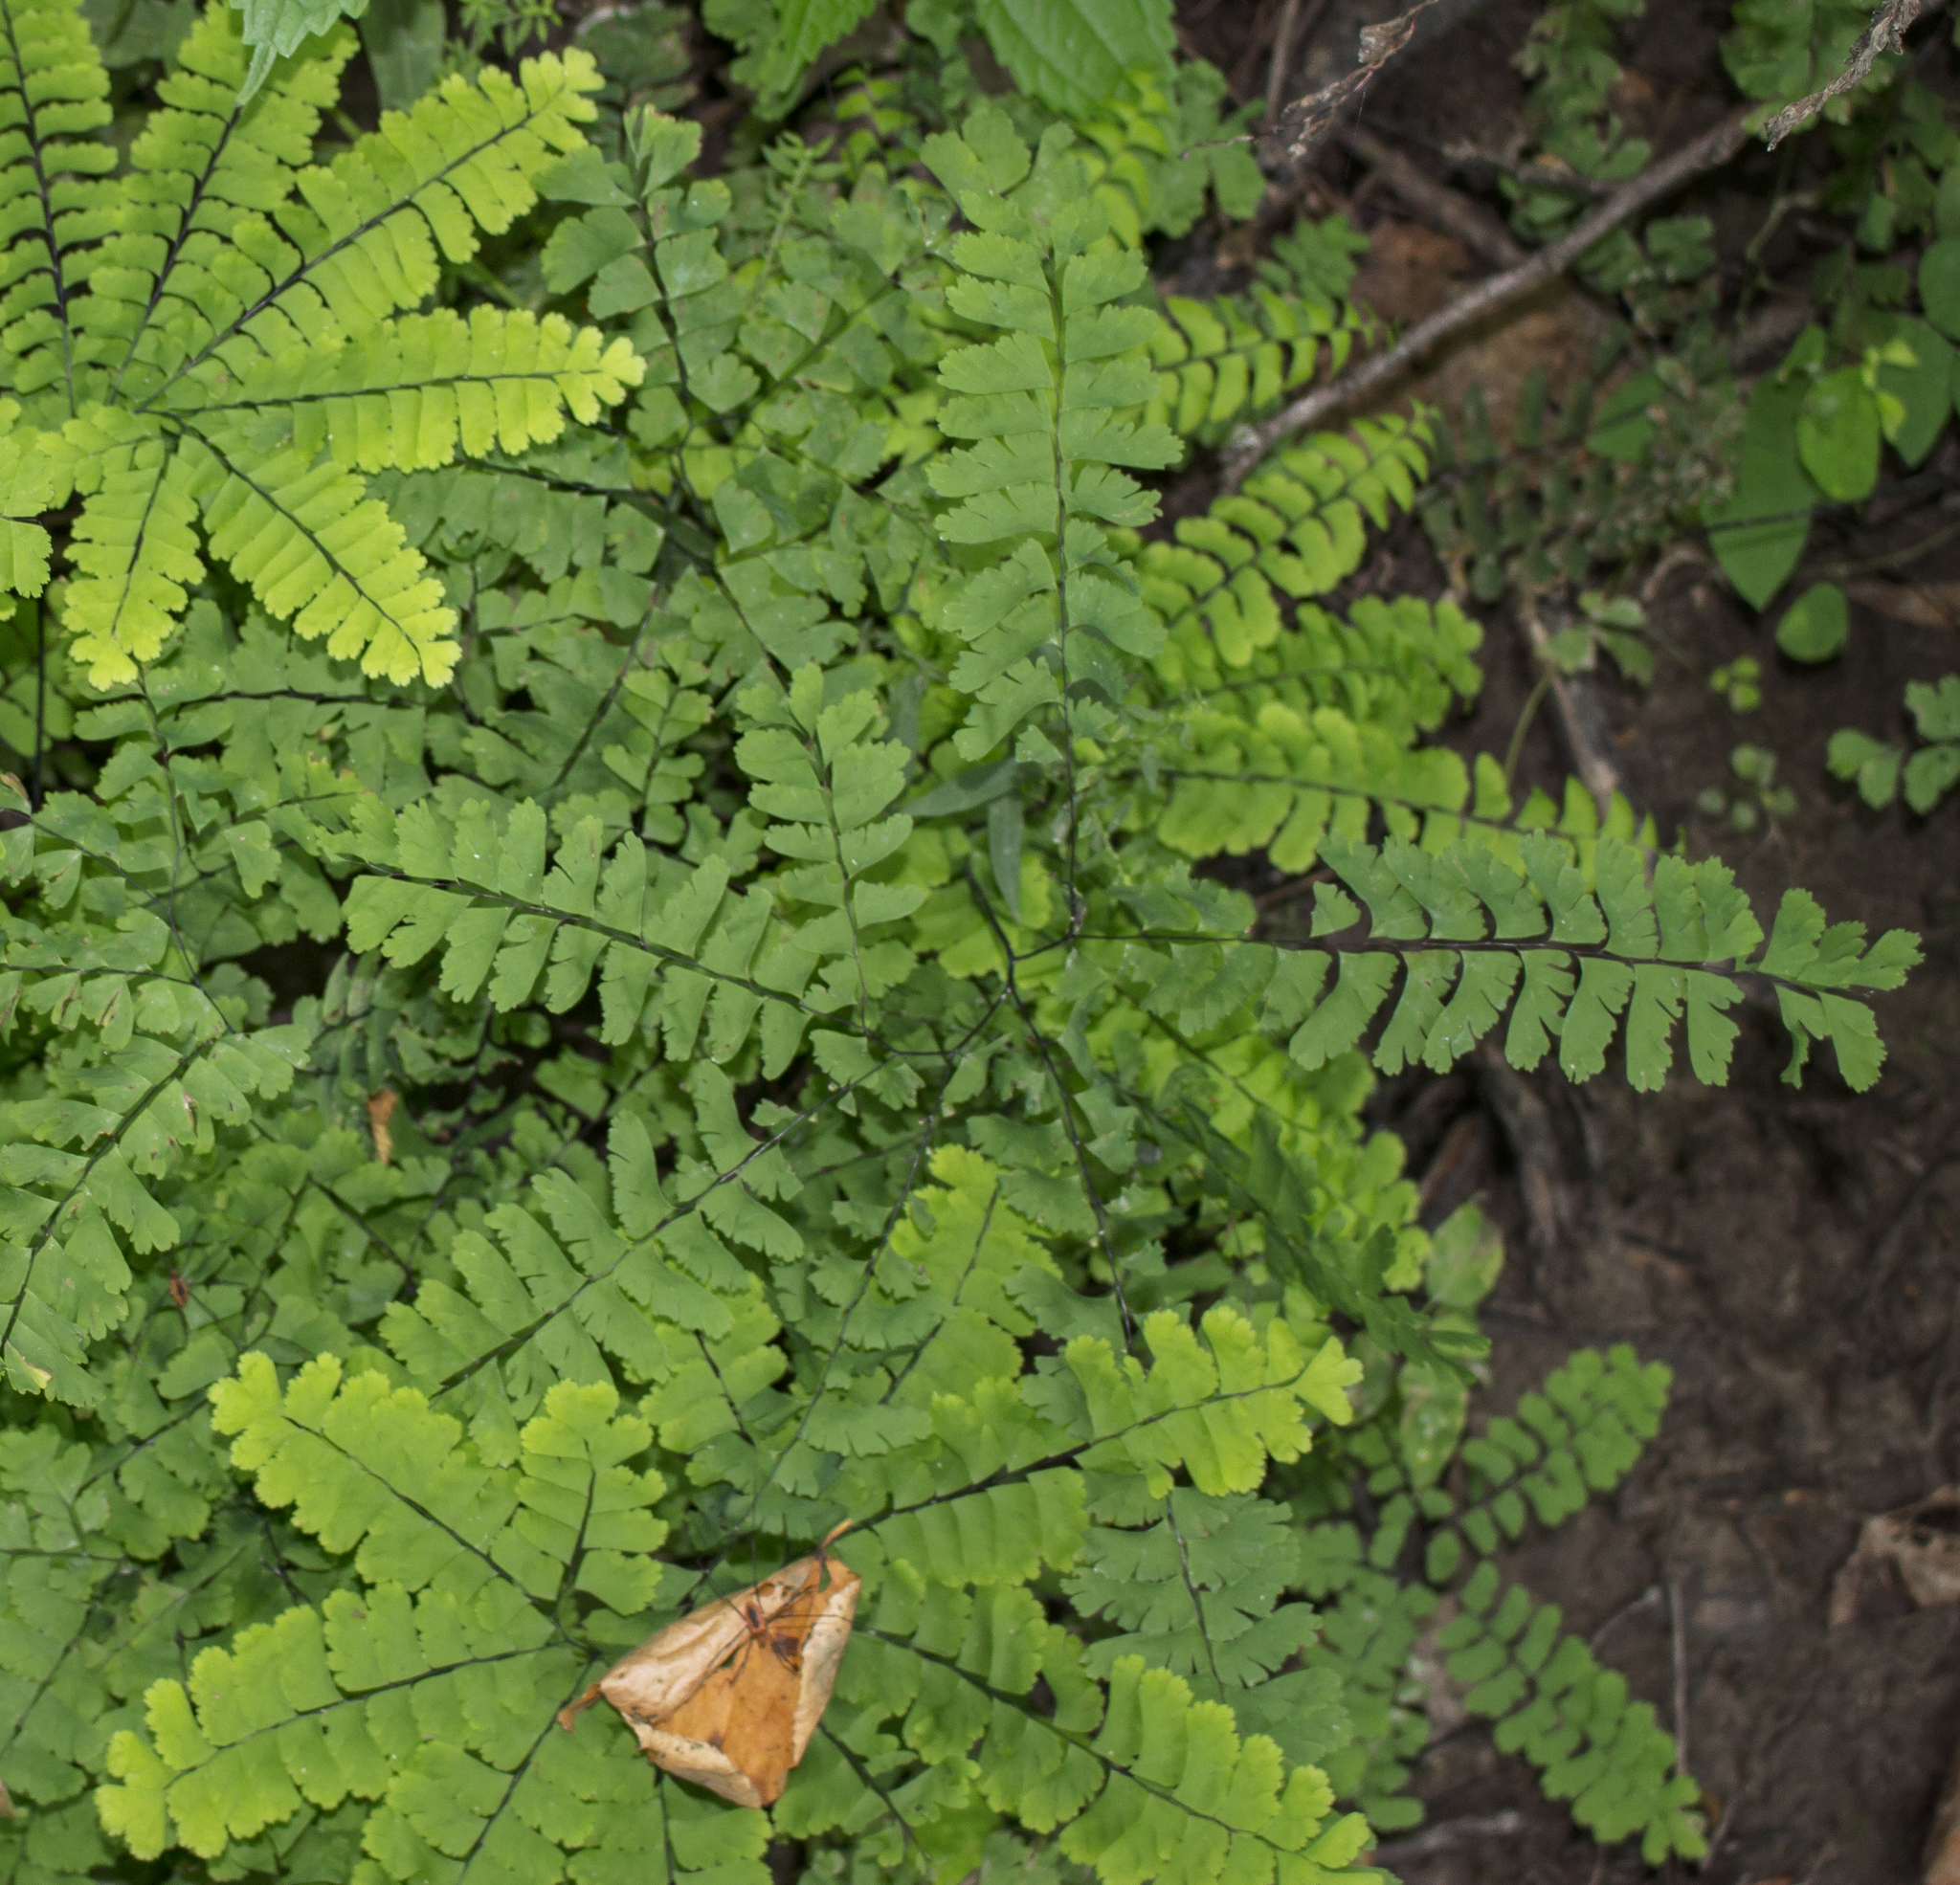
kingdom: Plantae
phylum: Tracheophyta
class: Polypodiopsida
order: Polypodiales
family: Pteridaceae
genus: Adiantum
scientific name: Adiantum pedatum
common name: Five-finger fern
